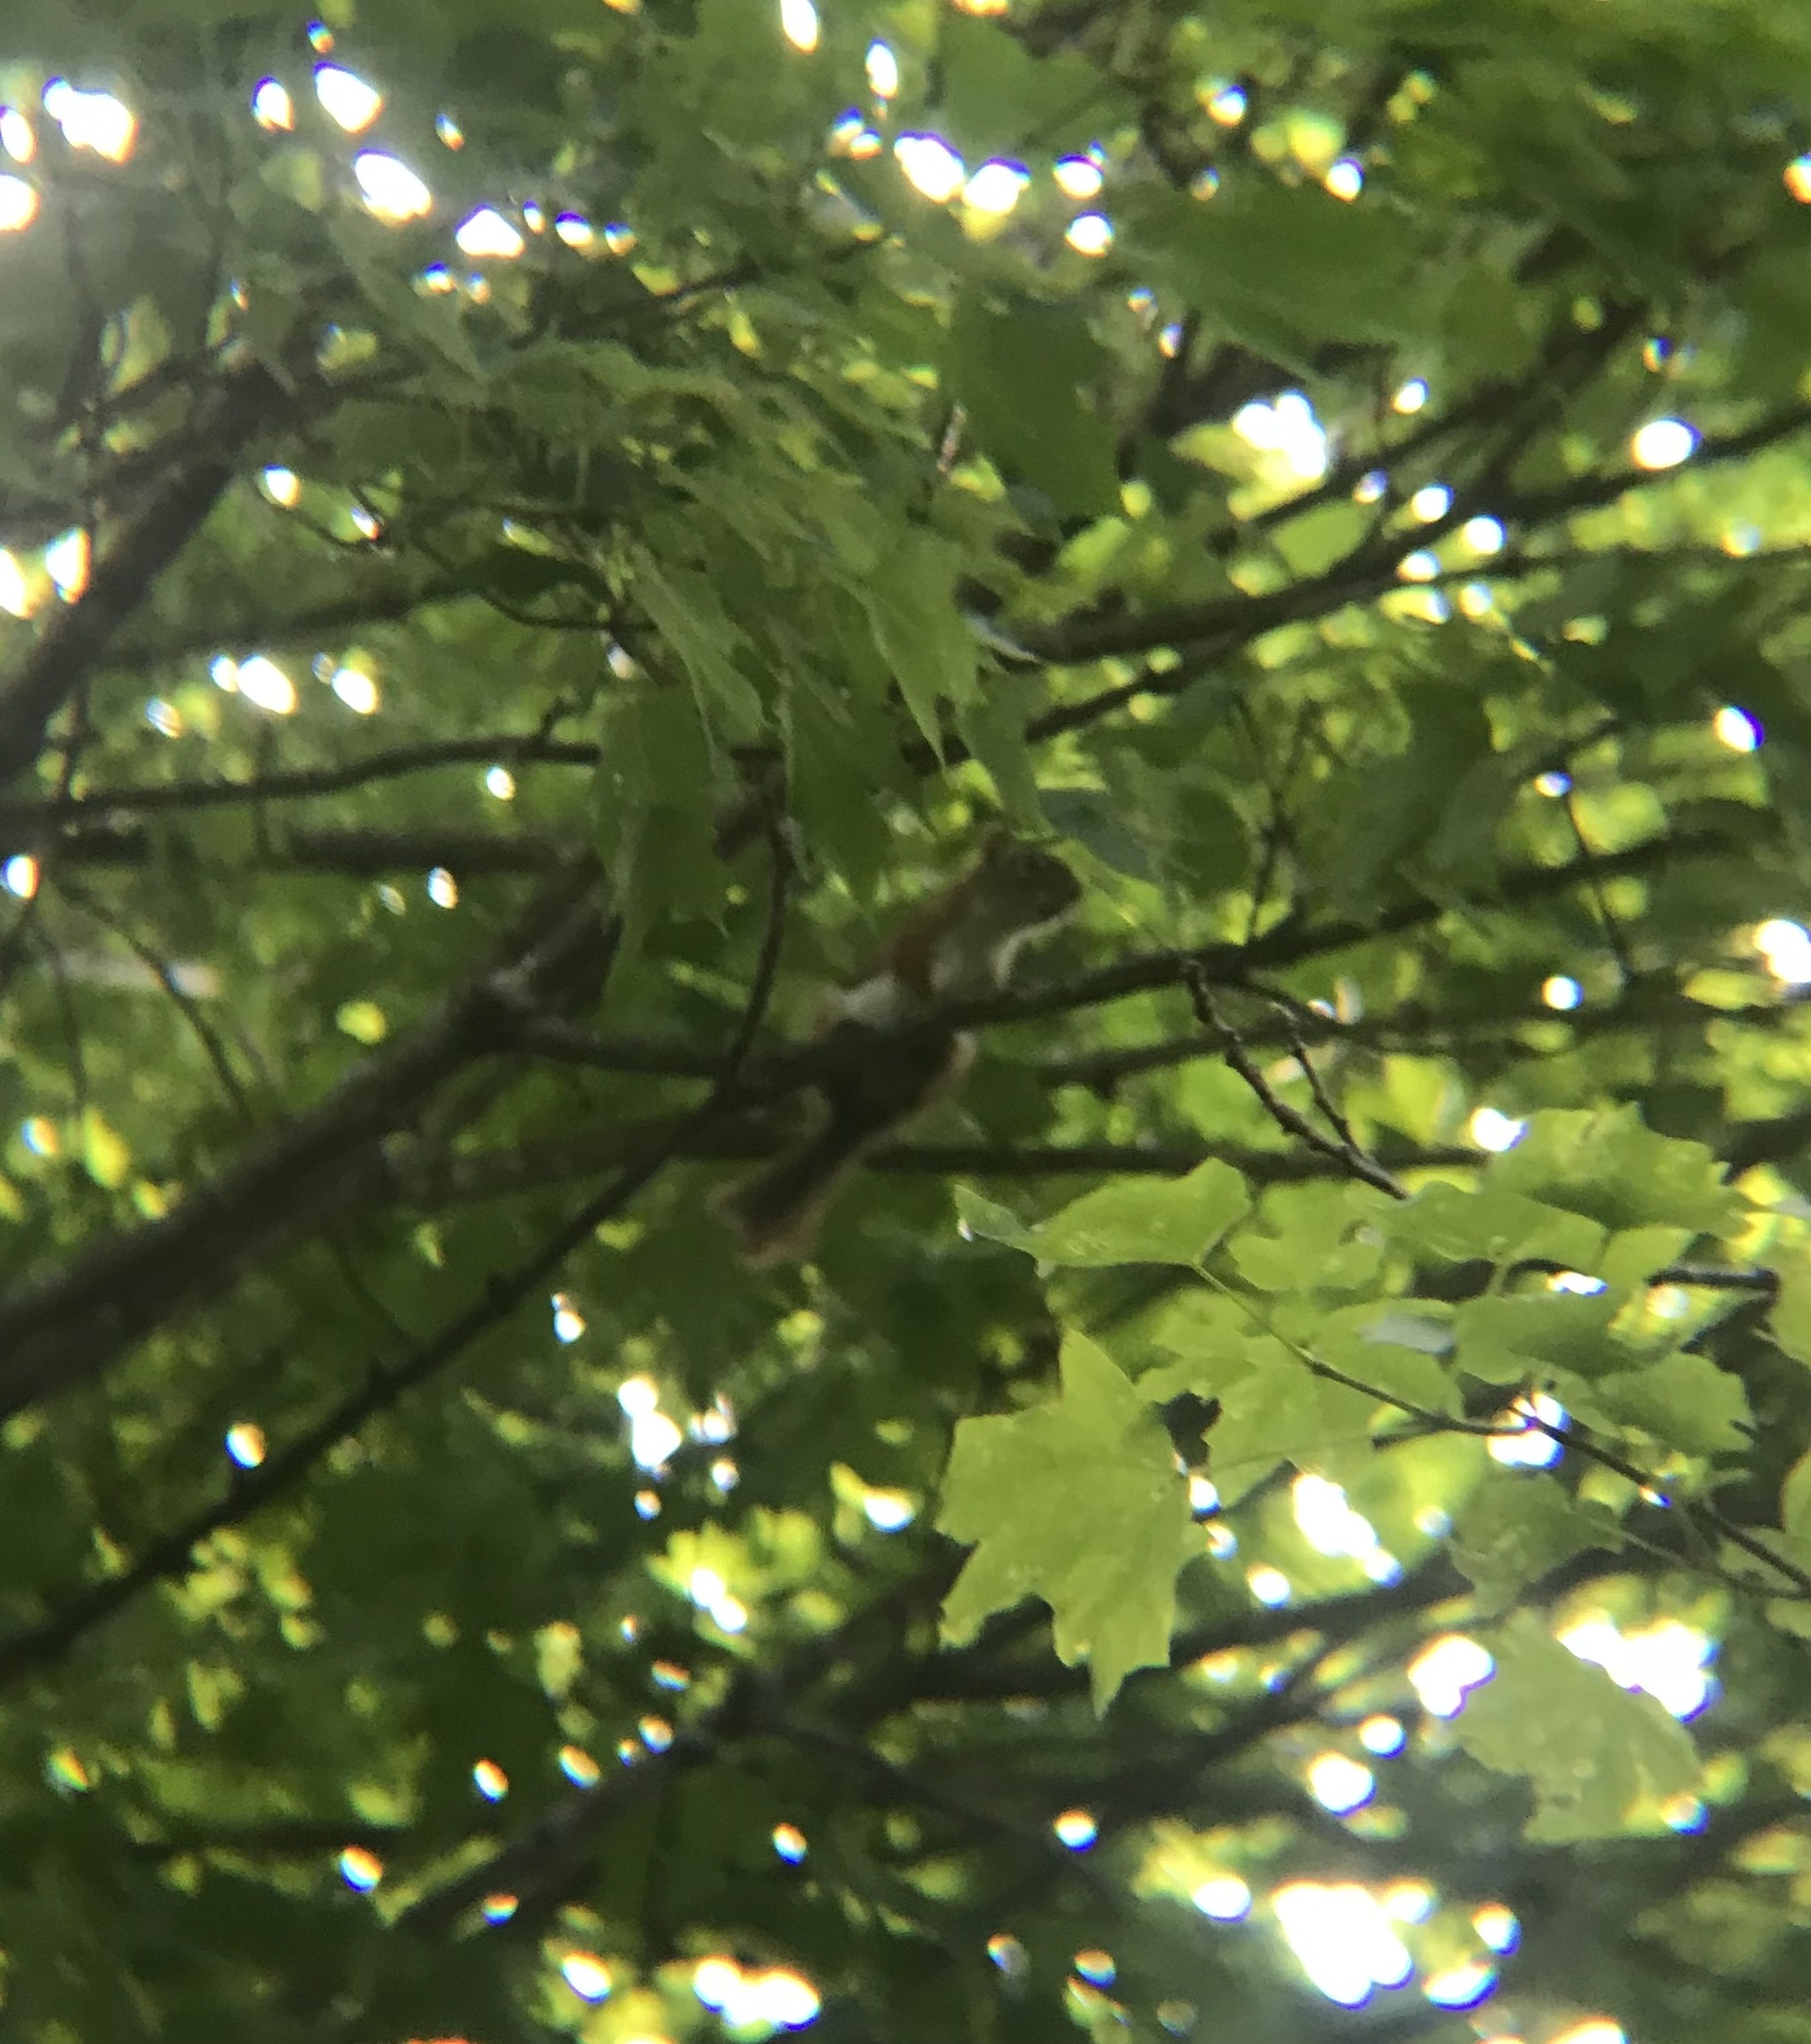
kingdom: Animalia
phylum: Chordata
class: Mammalia
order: Rodentia
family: Sciuridae
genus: Tamiasciurus
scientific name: Tamiasciurus hudsonicus
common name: Red squirrel
